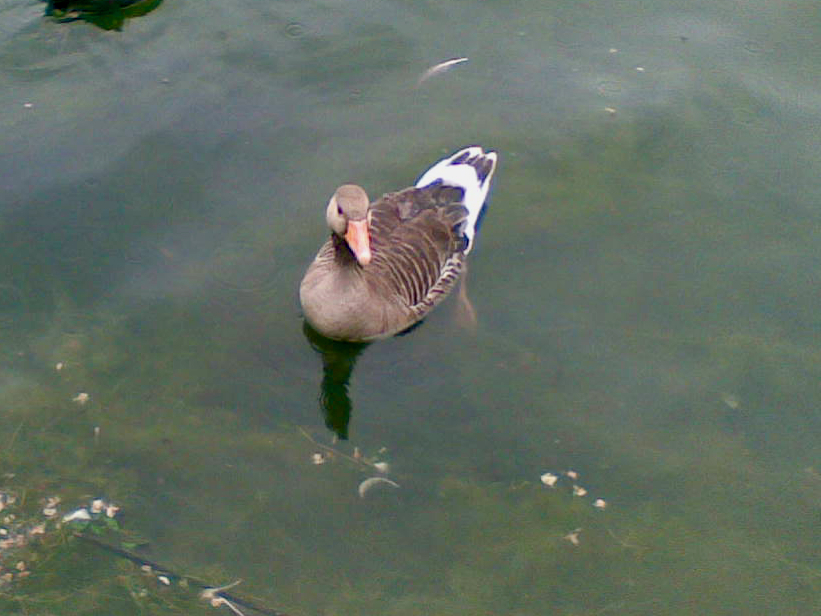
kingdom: Animalia
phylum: Chordata
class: Aves
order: Anseriformes
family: Anatidae
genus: Anser
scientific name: Anser anser
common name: Greylag goose
